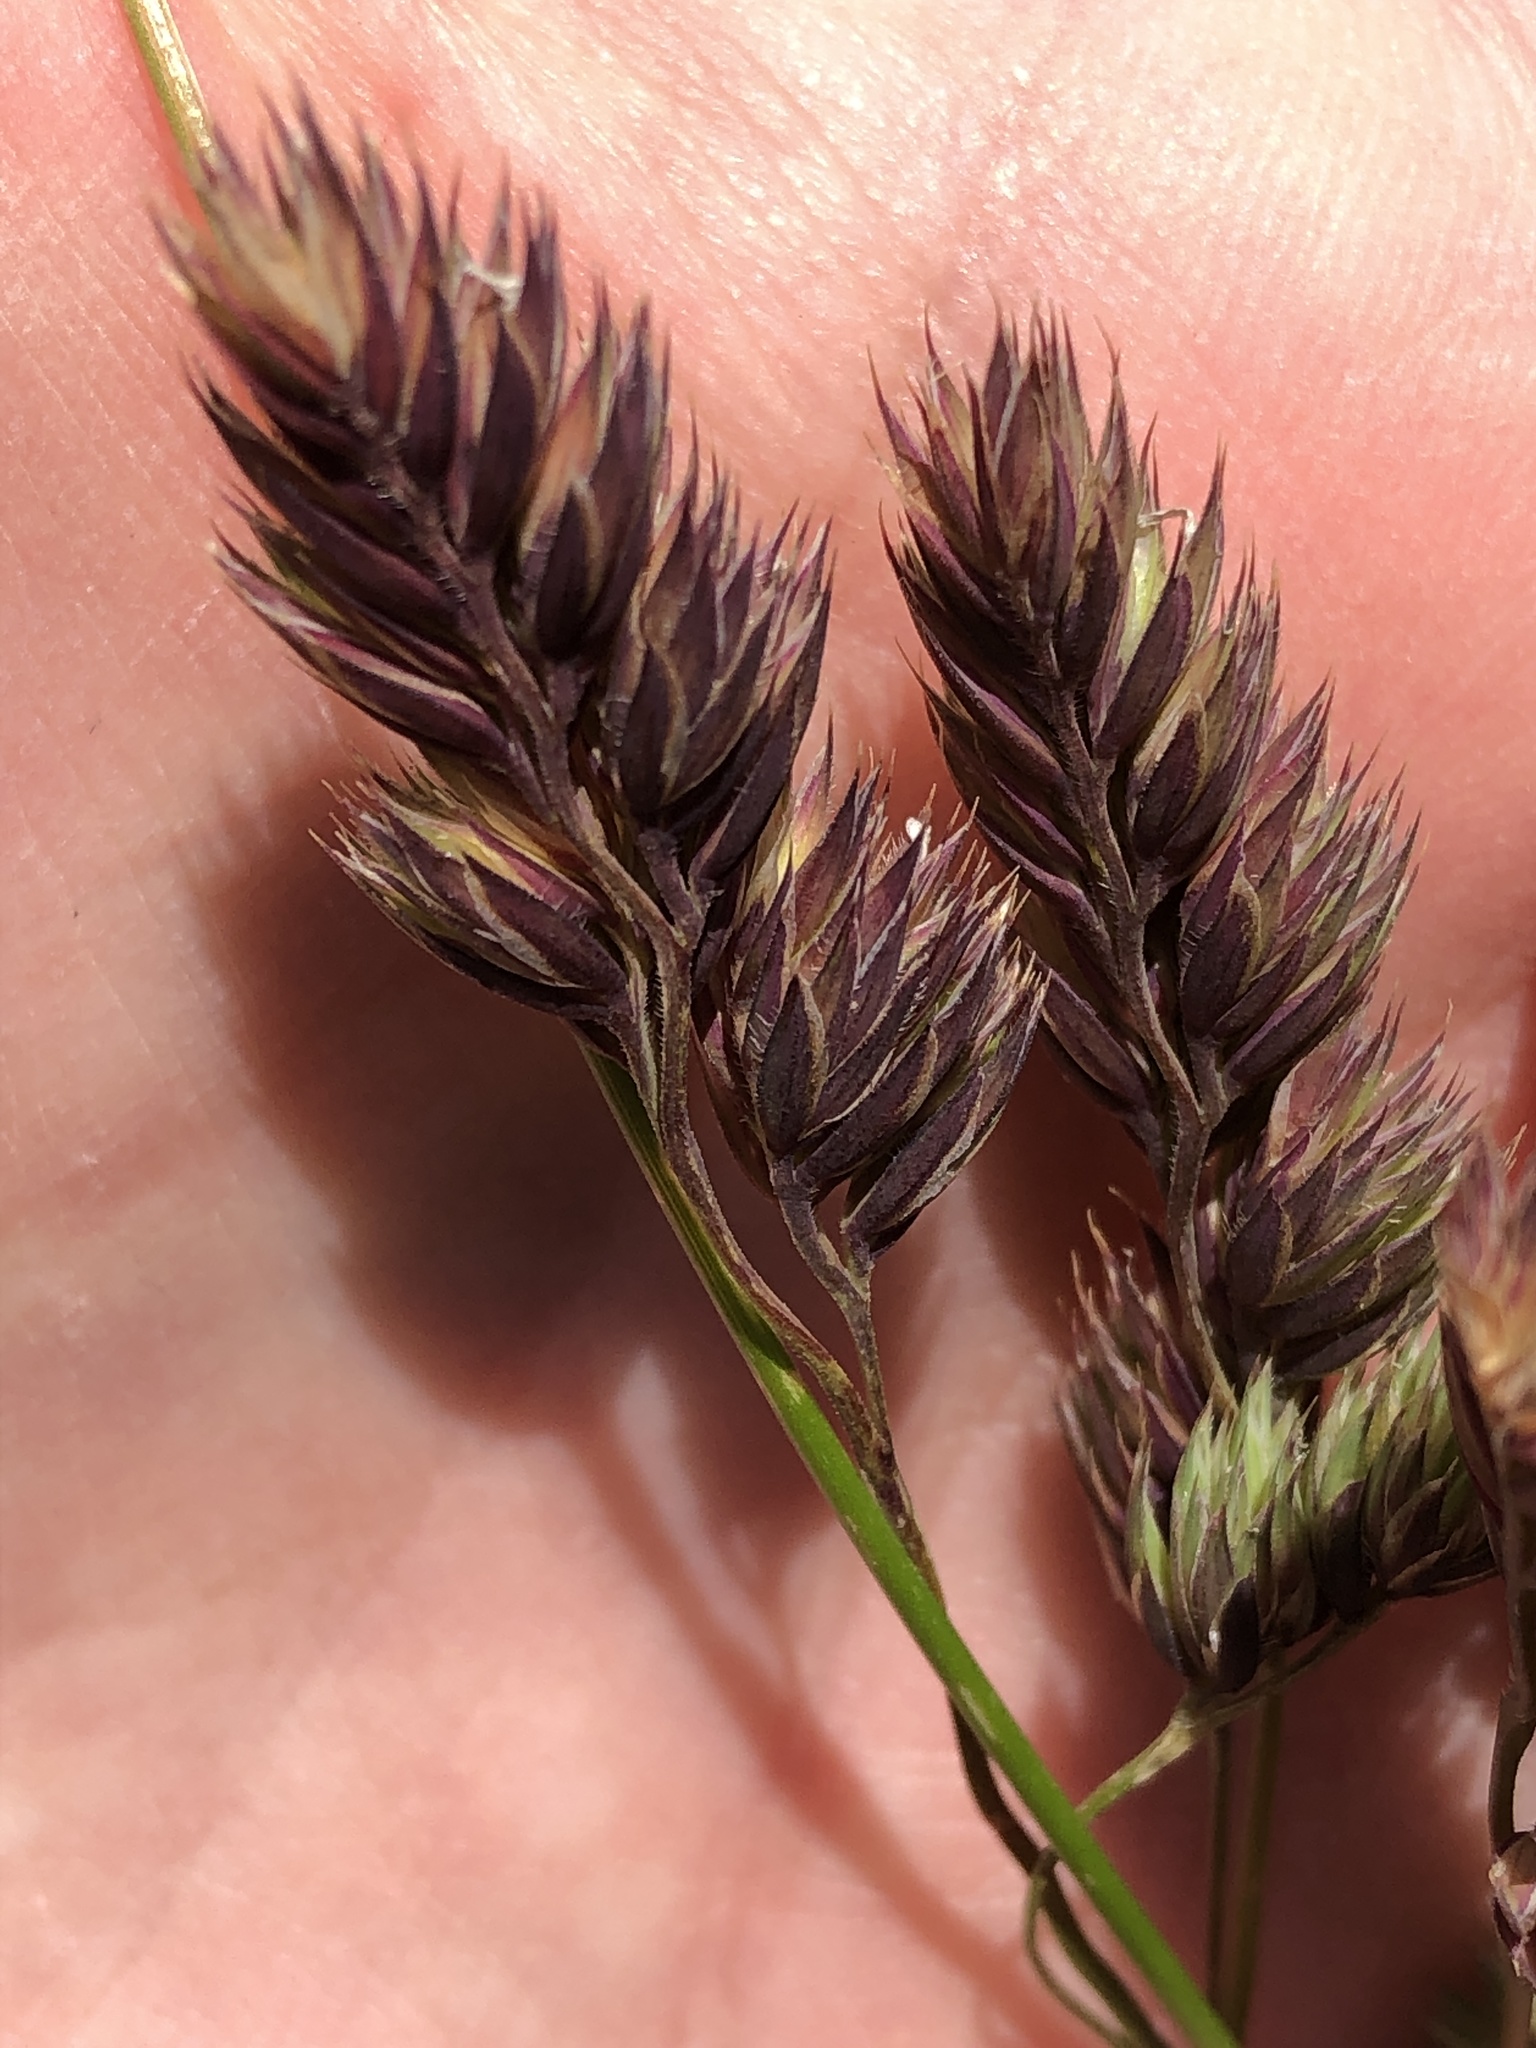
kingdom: Plantae
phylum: Tracheophyta
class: Liliopsida
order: Poales
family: Poaceae
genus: Dactylis
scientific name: Dactylis glomerata
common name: Orchardgrass
